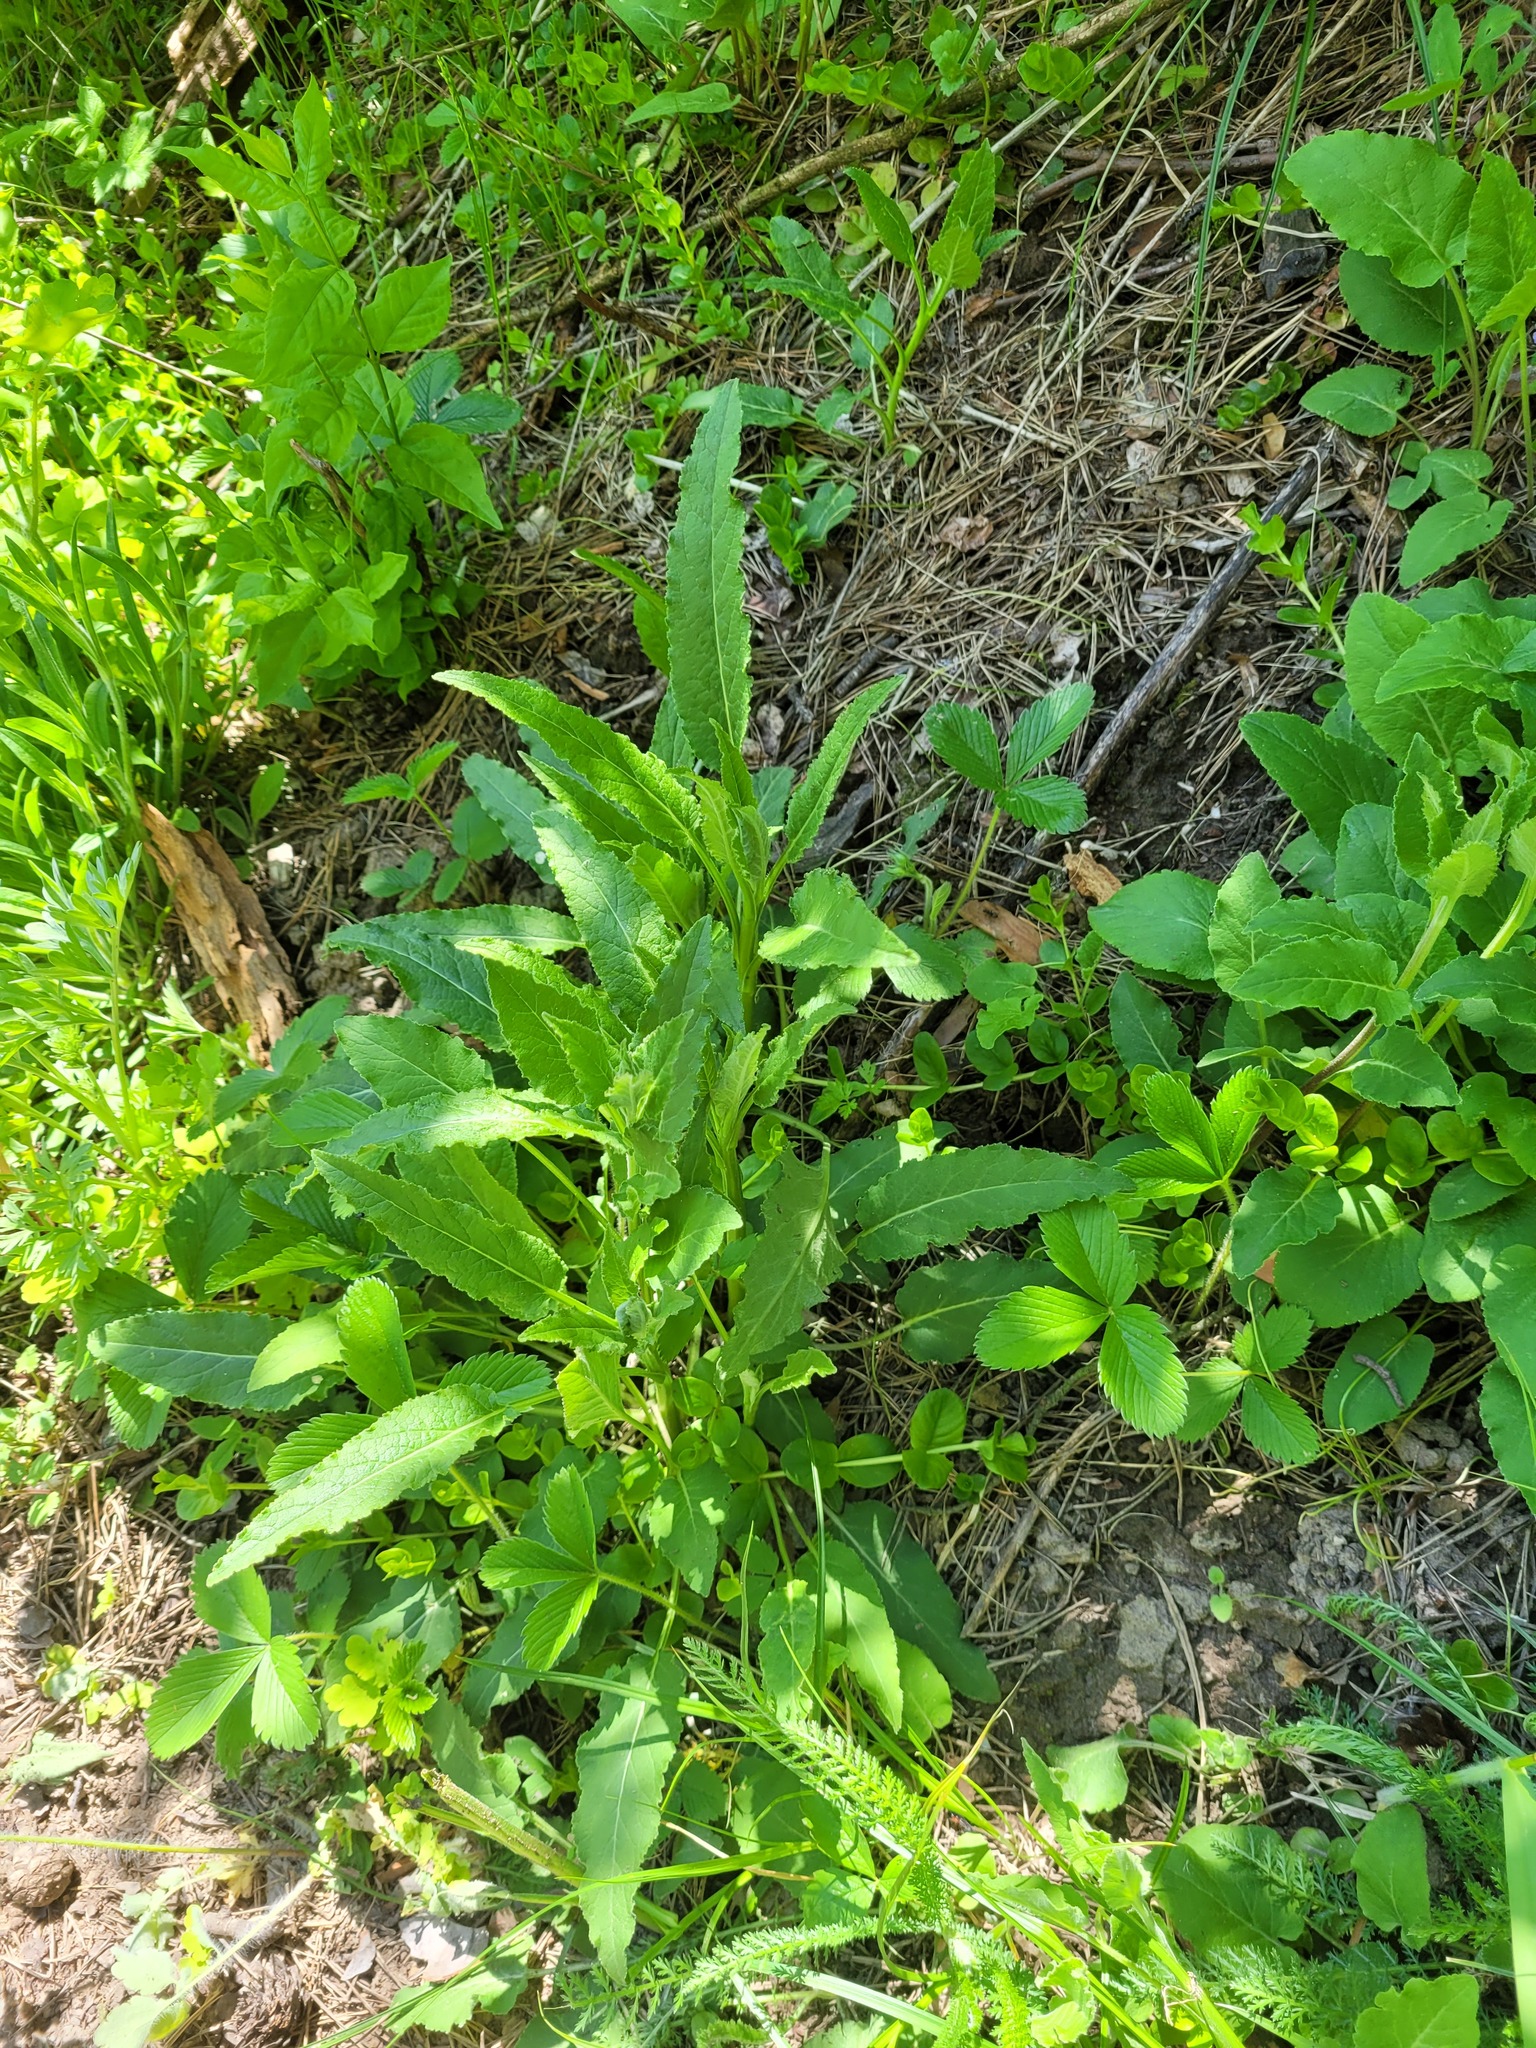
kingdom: Plantae
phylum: Tracheophyta
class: Magnoliopsida
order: Asterales
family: Campanulaceae
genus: Campanula
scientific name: Campanula glomerata
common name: Clustered bellflower
